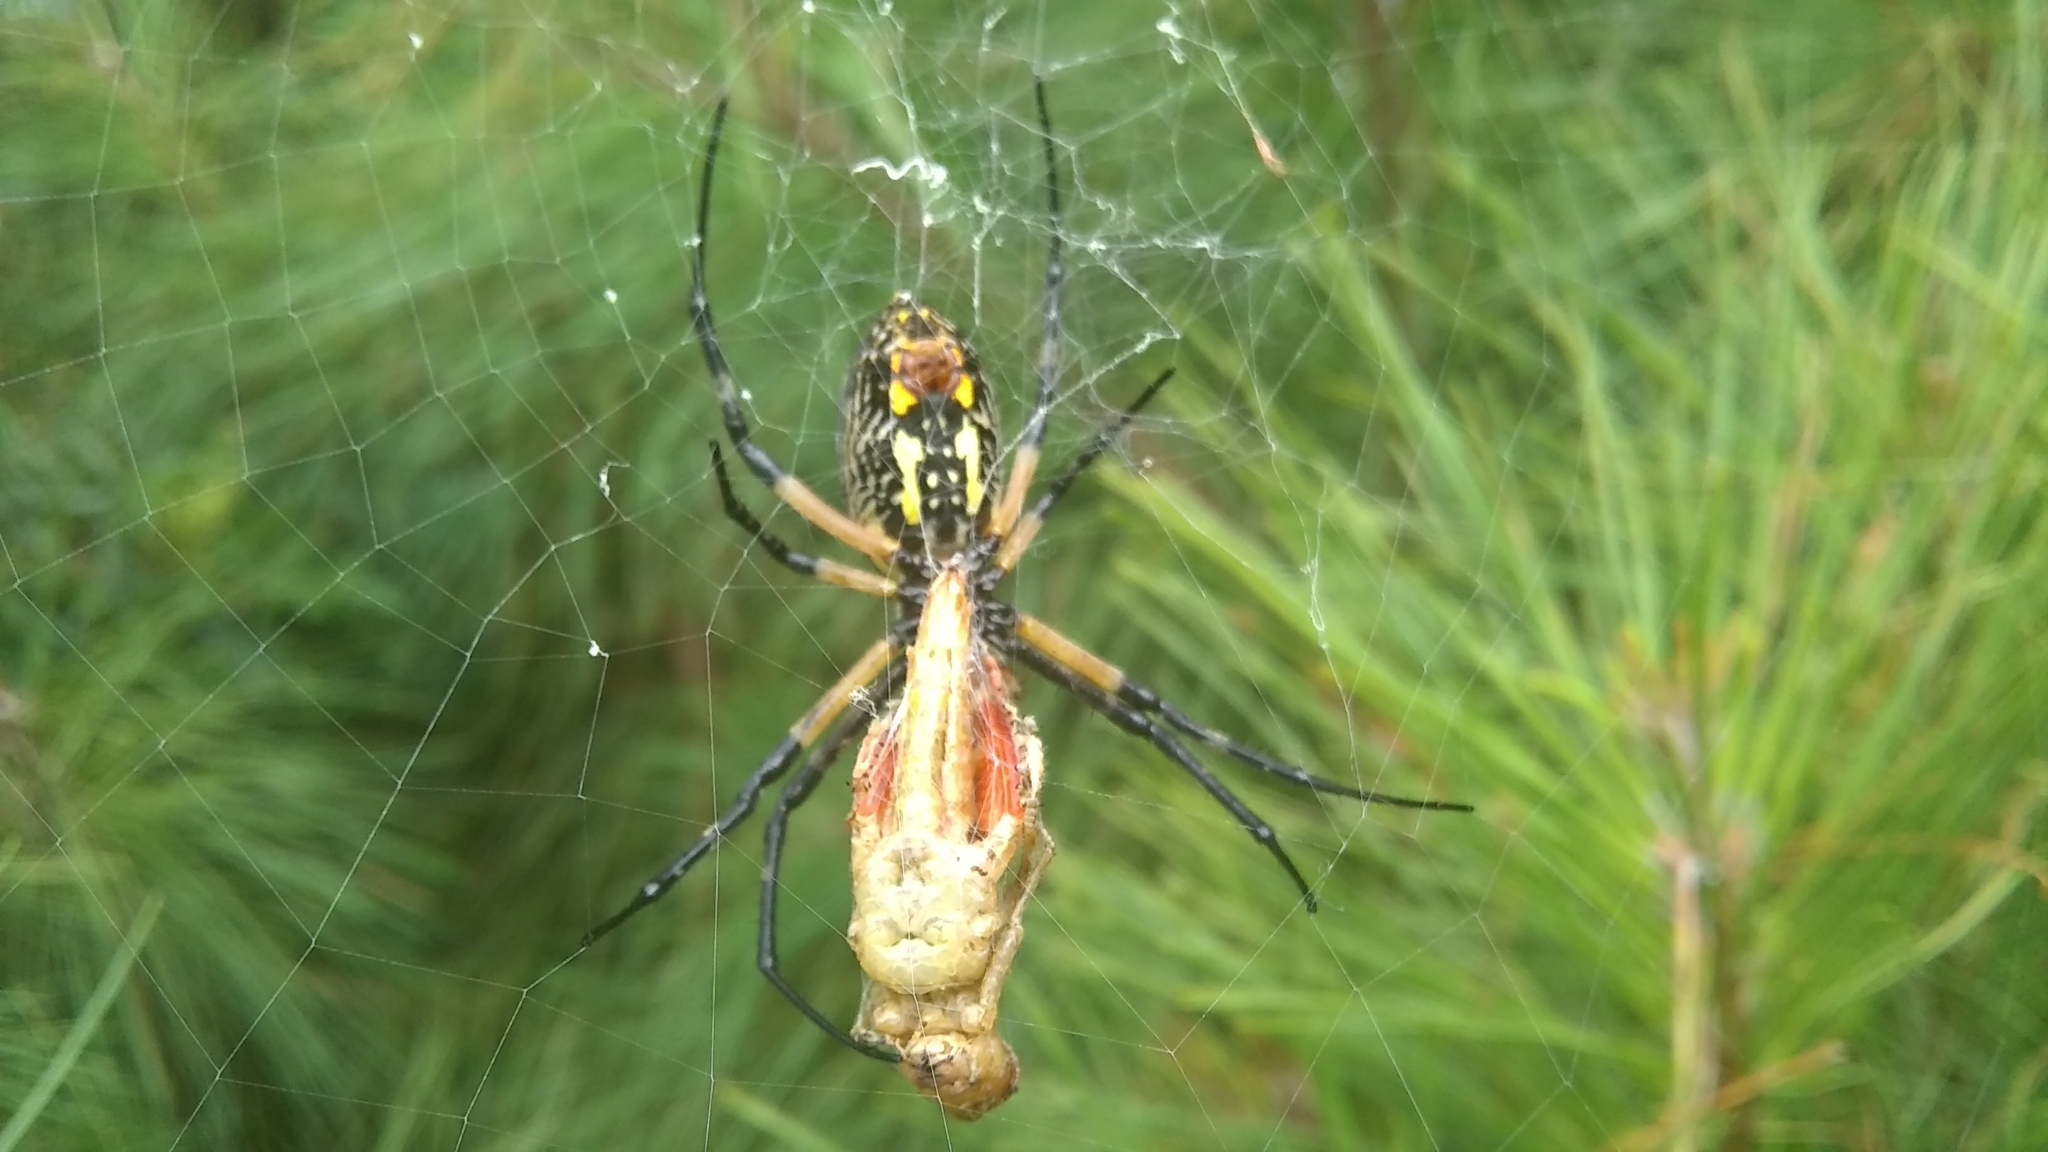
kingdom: Animalia
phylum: Arthropoda
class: Arachnida
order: Araneae
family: Araneidae
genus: Argiope
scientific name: Argiope aurantia
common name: Orb weavers
